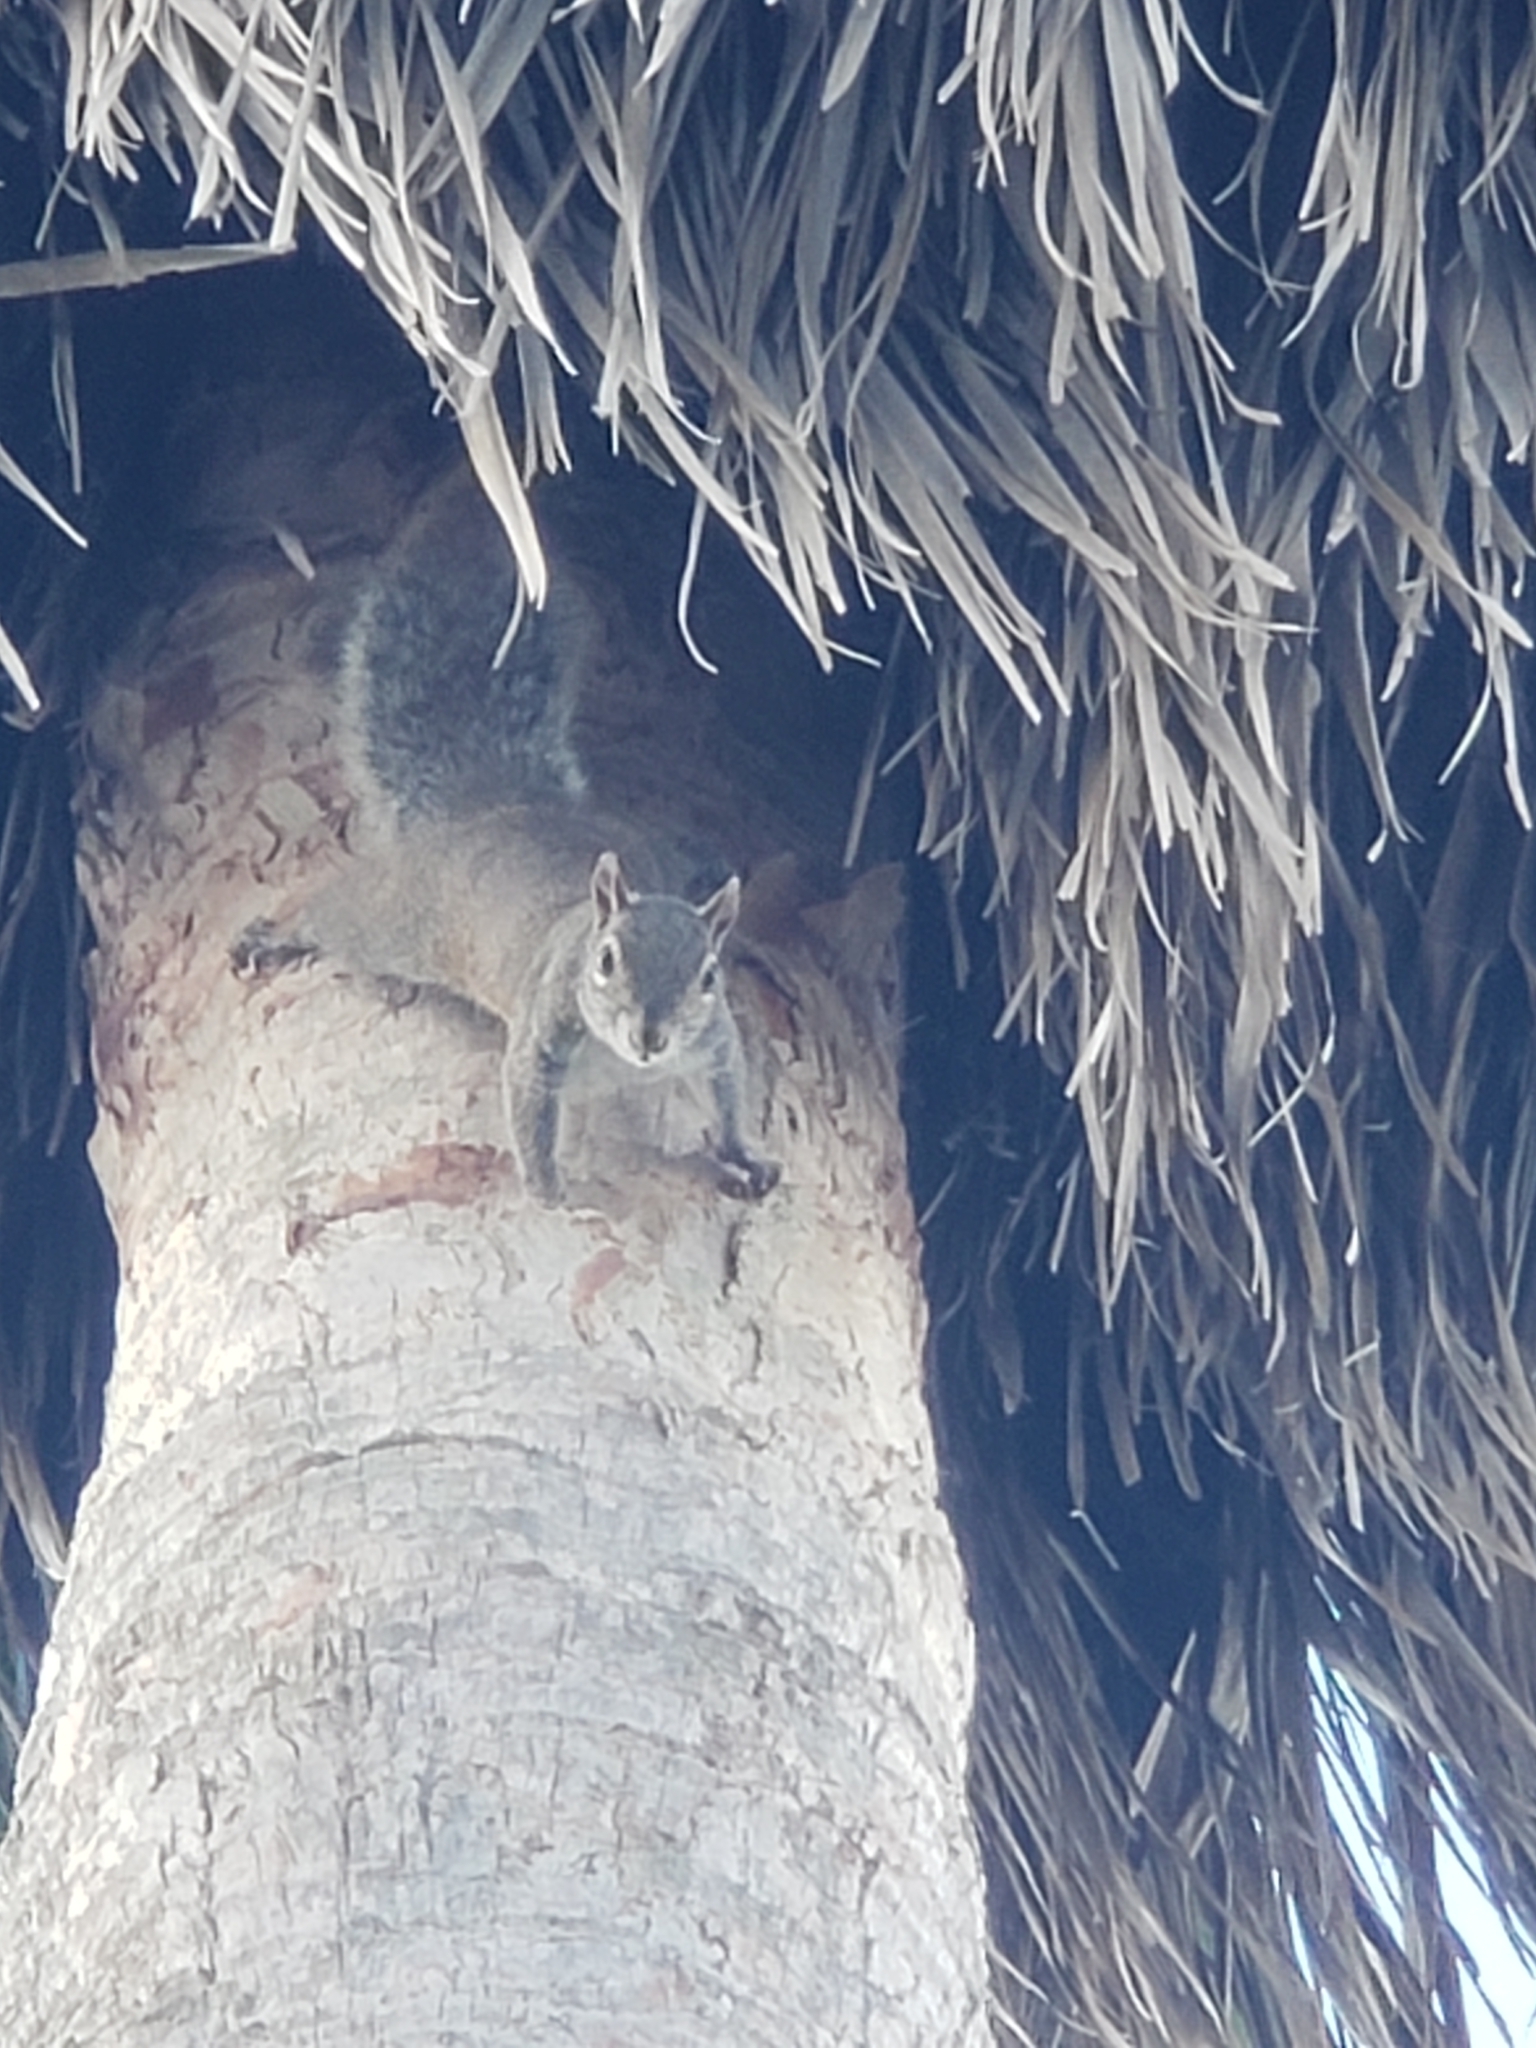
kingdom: Animalia
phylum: Chordata
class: Mammalia
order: Rodentia
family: Sciuridae
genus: Sciurus
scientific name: Sciurus carolinensis
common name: Eastern gray squirrel
